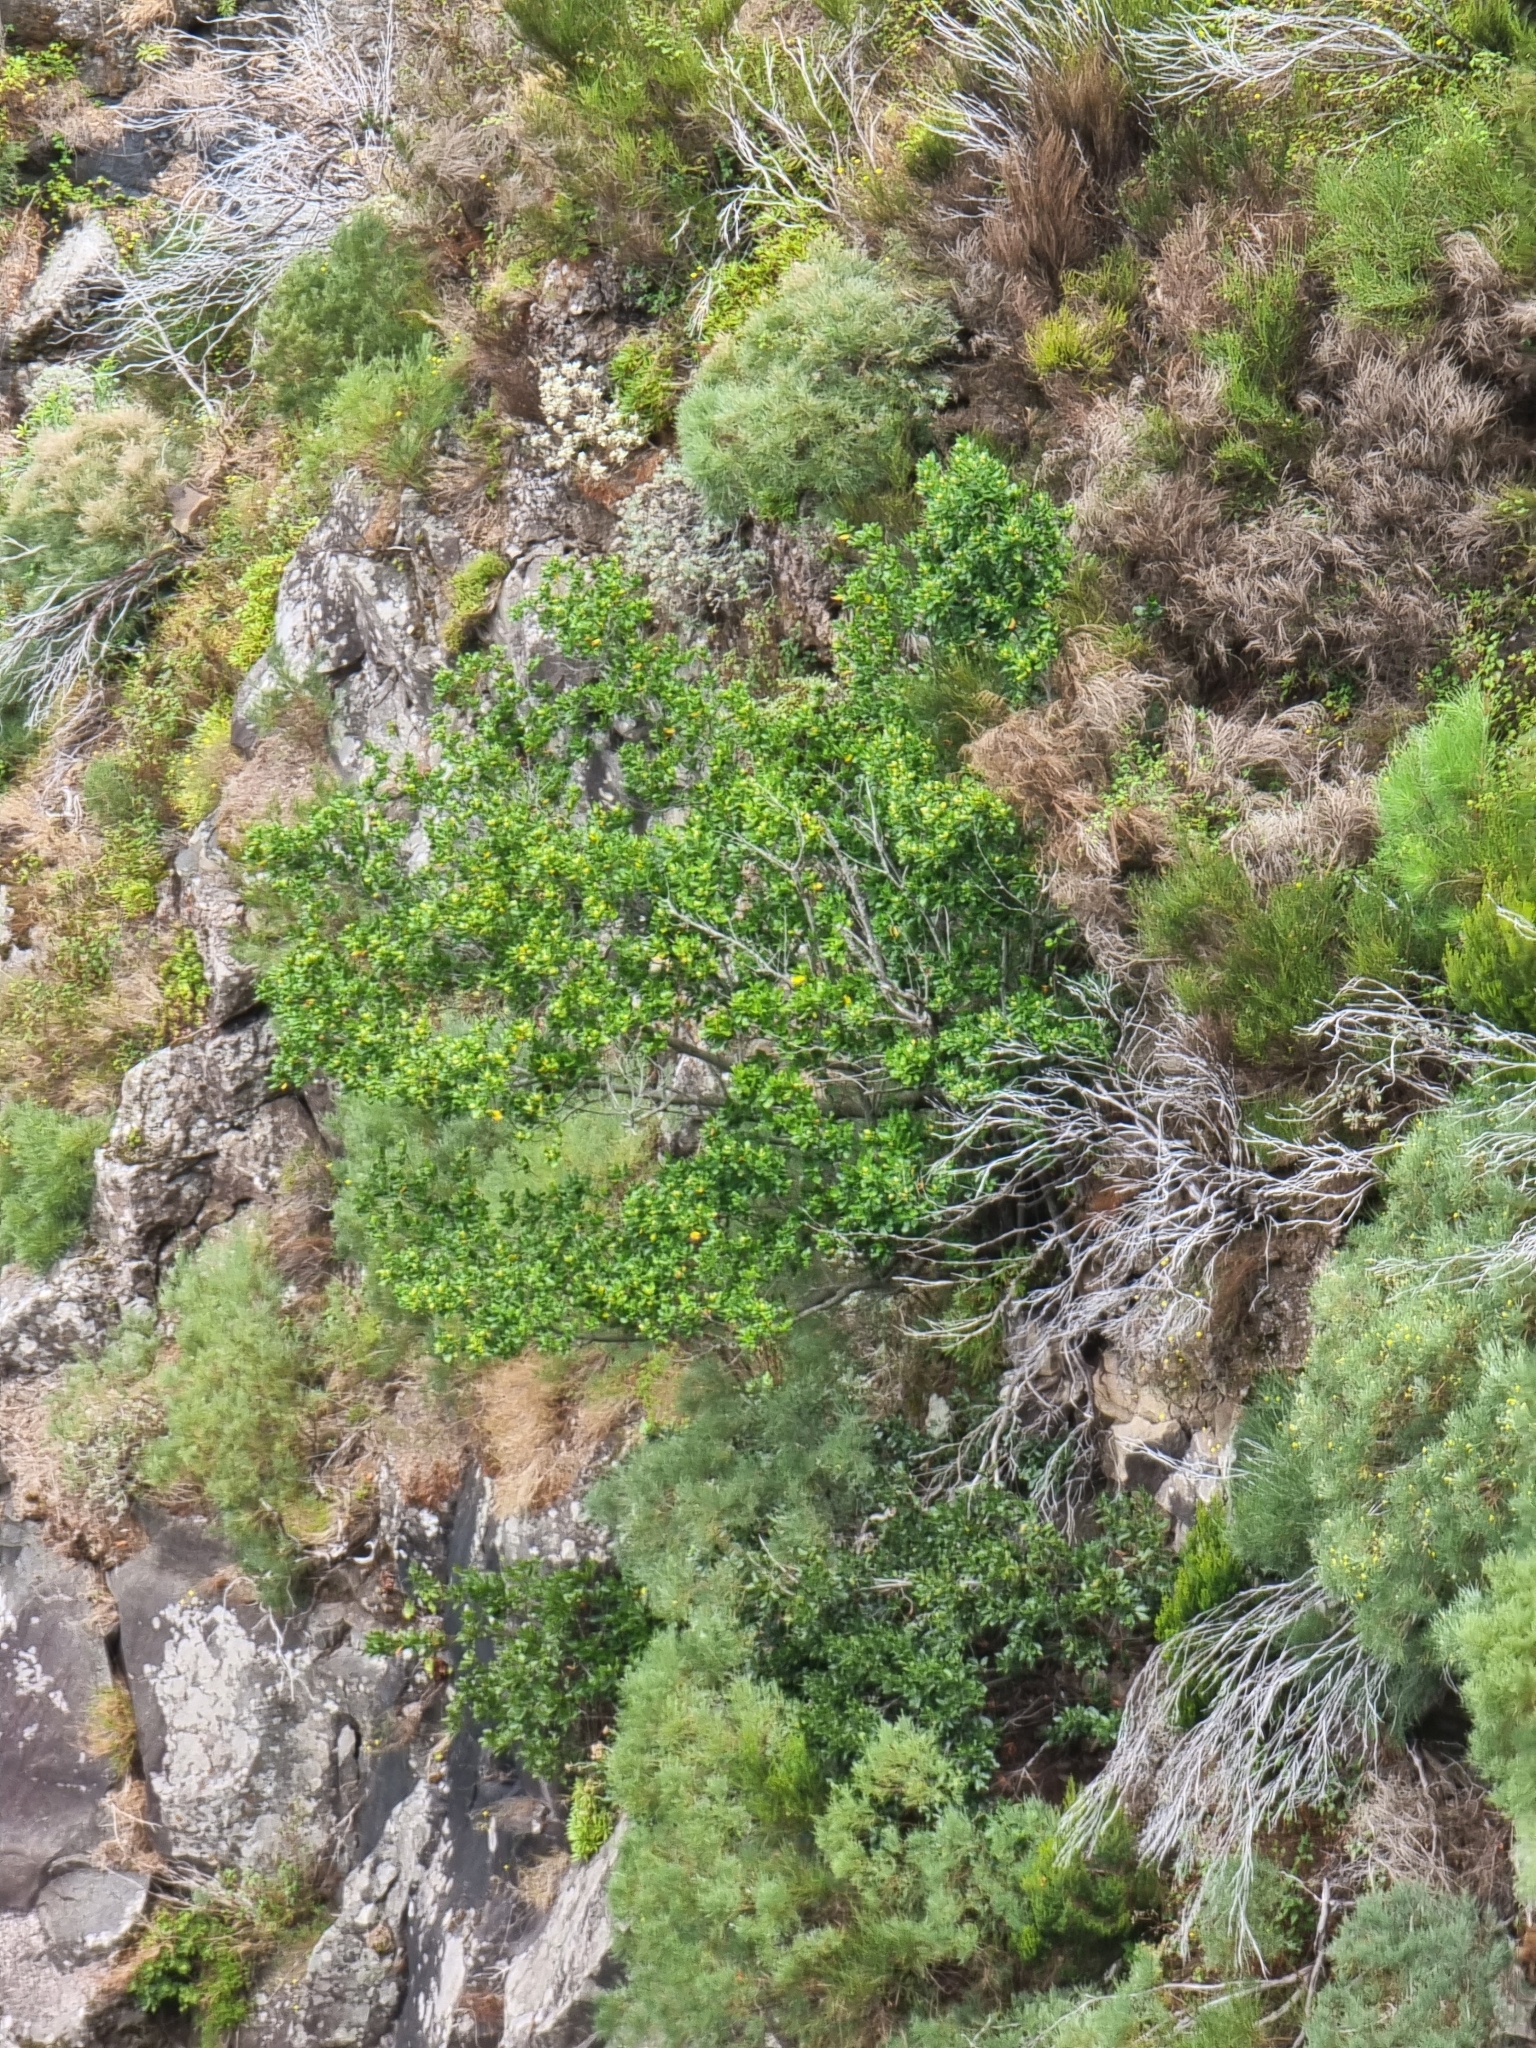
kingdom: Plantae
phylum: Tracheophyta
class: Magnoliopsida
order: Laurales
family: Lauraceae
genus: Mespilodaphne
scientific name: Mespilodaphne foetens
